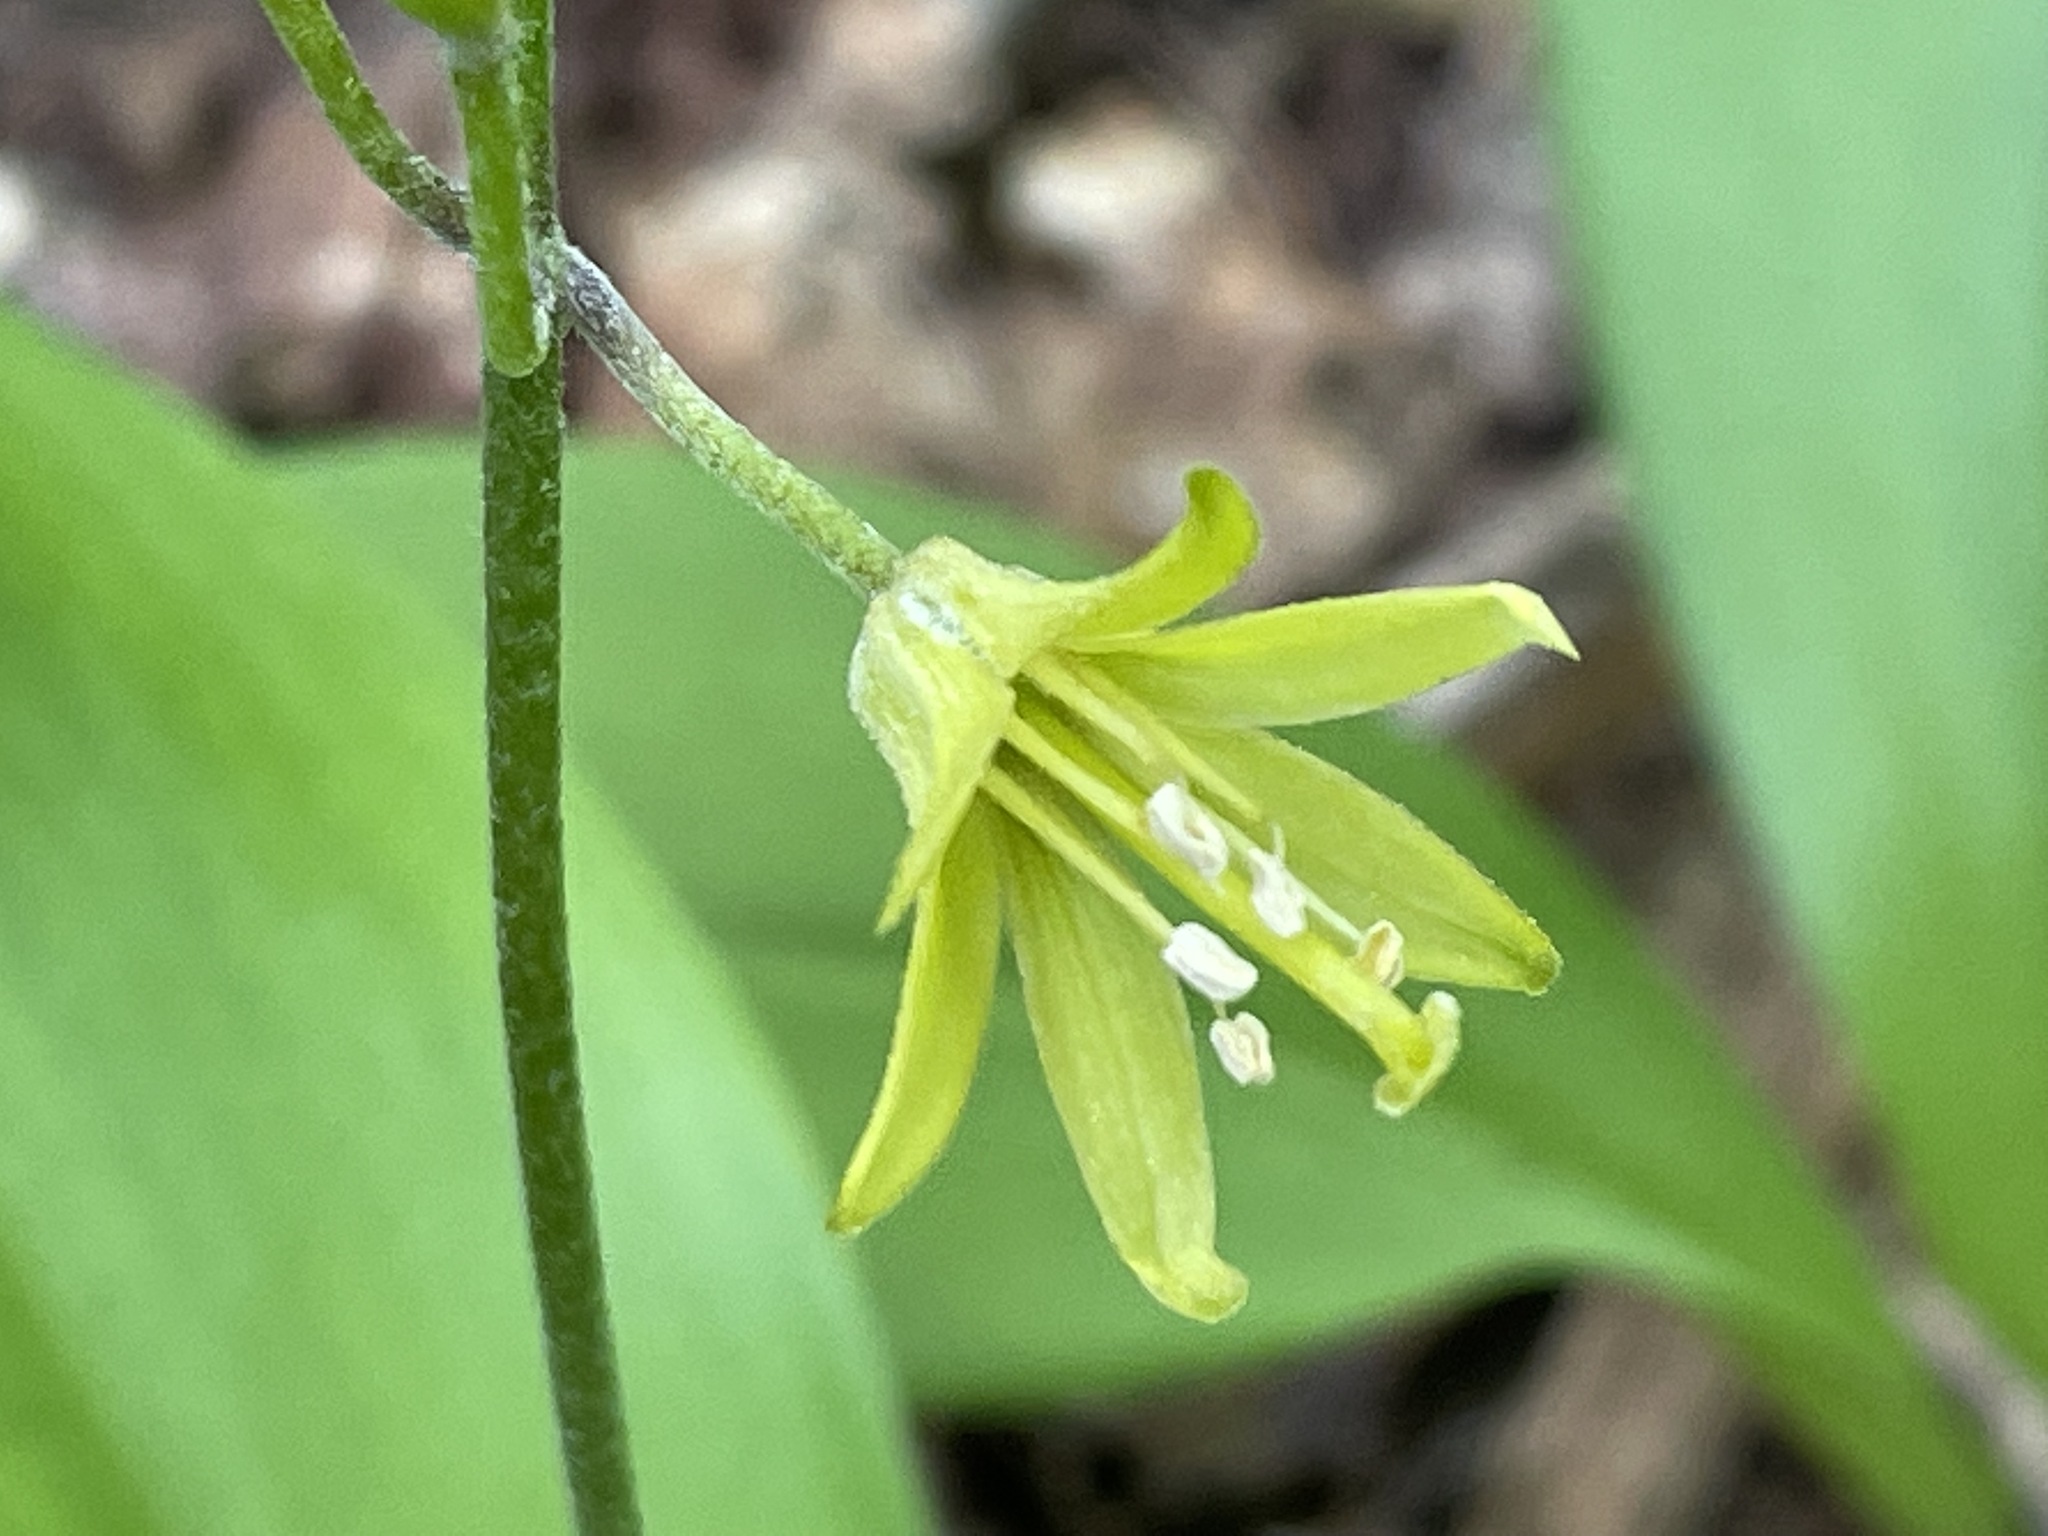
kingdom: Plantae
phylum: Tracheophyta
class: Liliopsida
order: Liliales
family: Liliaceae
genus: Clintonia
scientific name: Clintonia borealis
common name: Yellow clintonia
